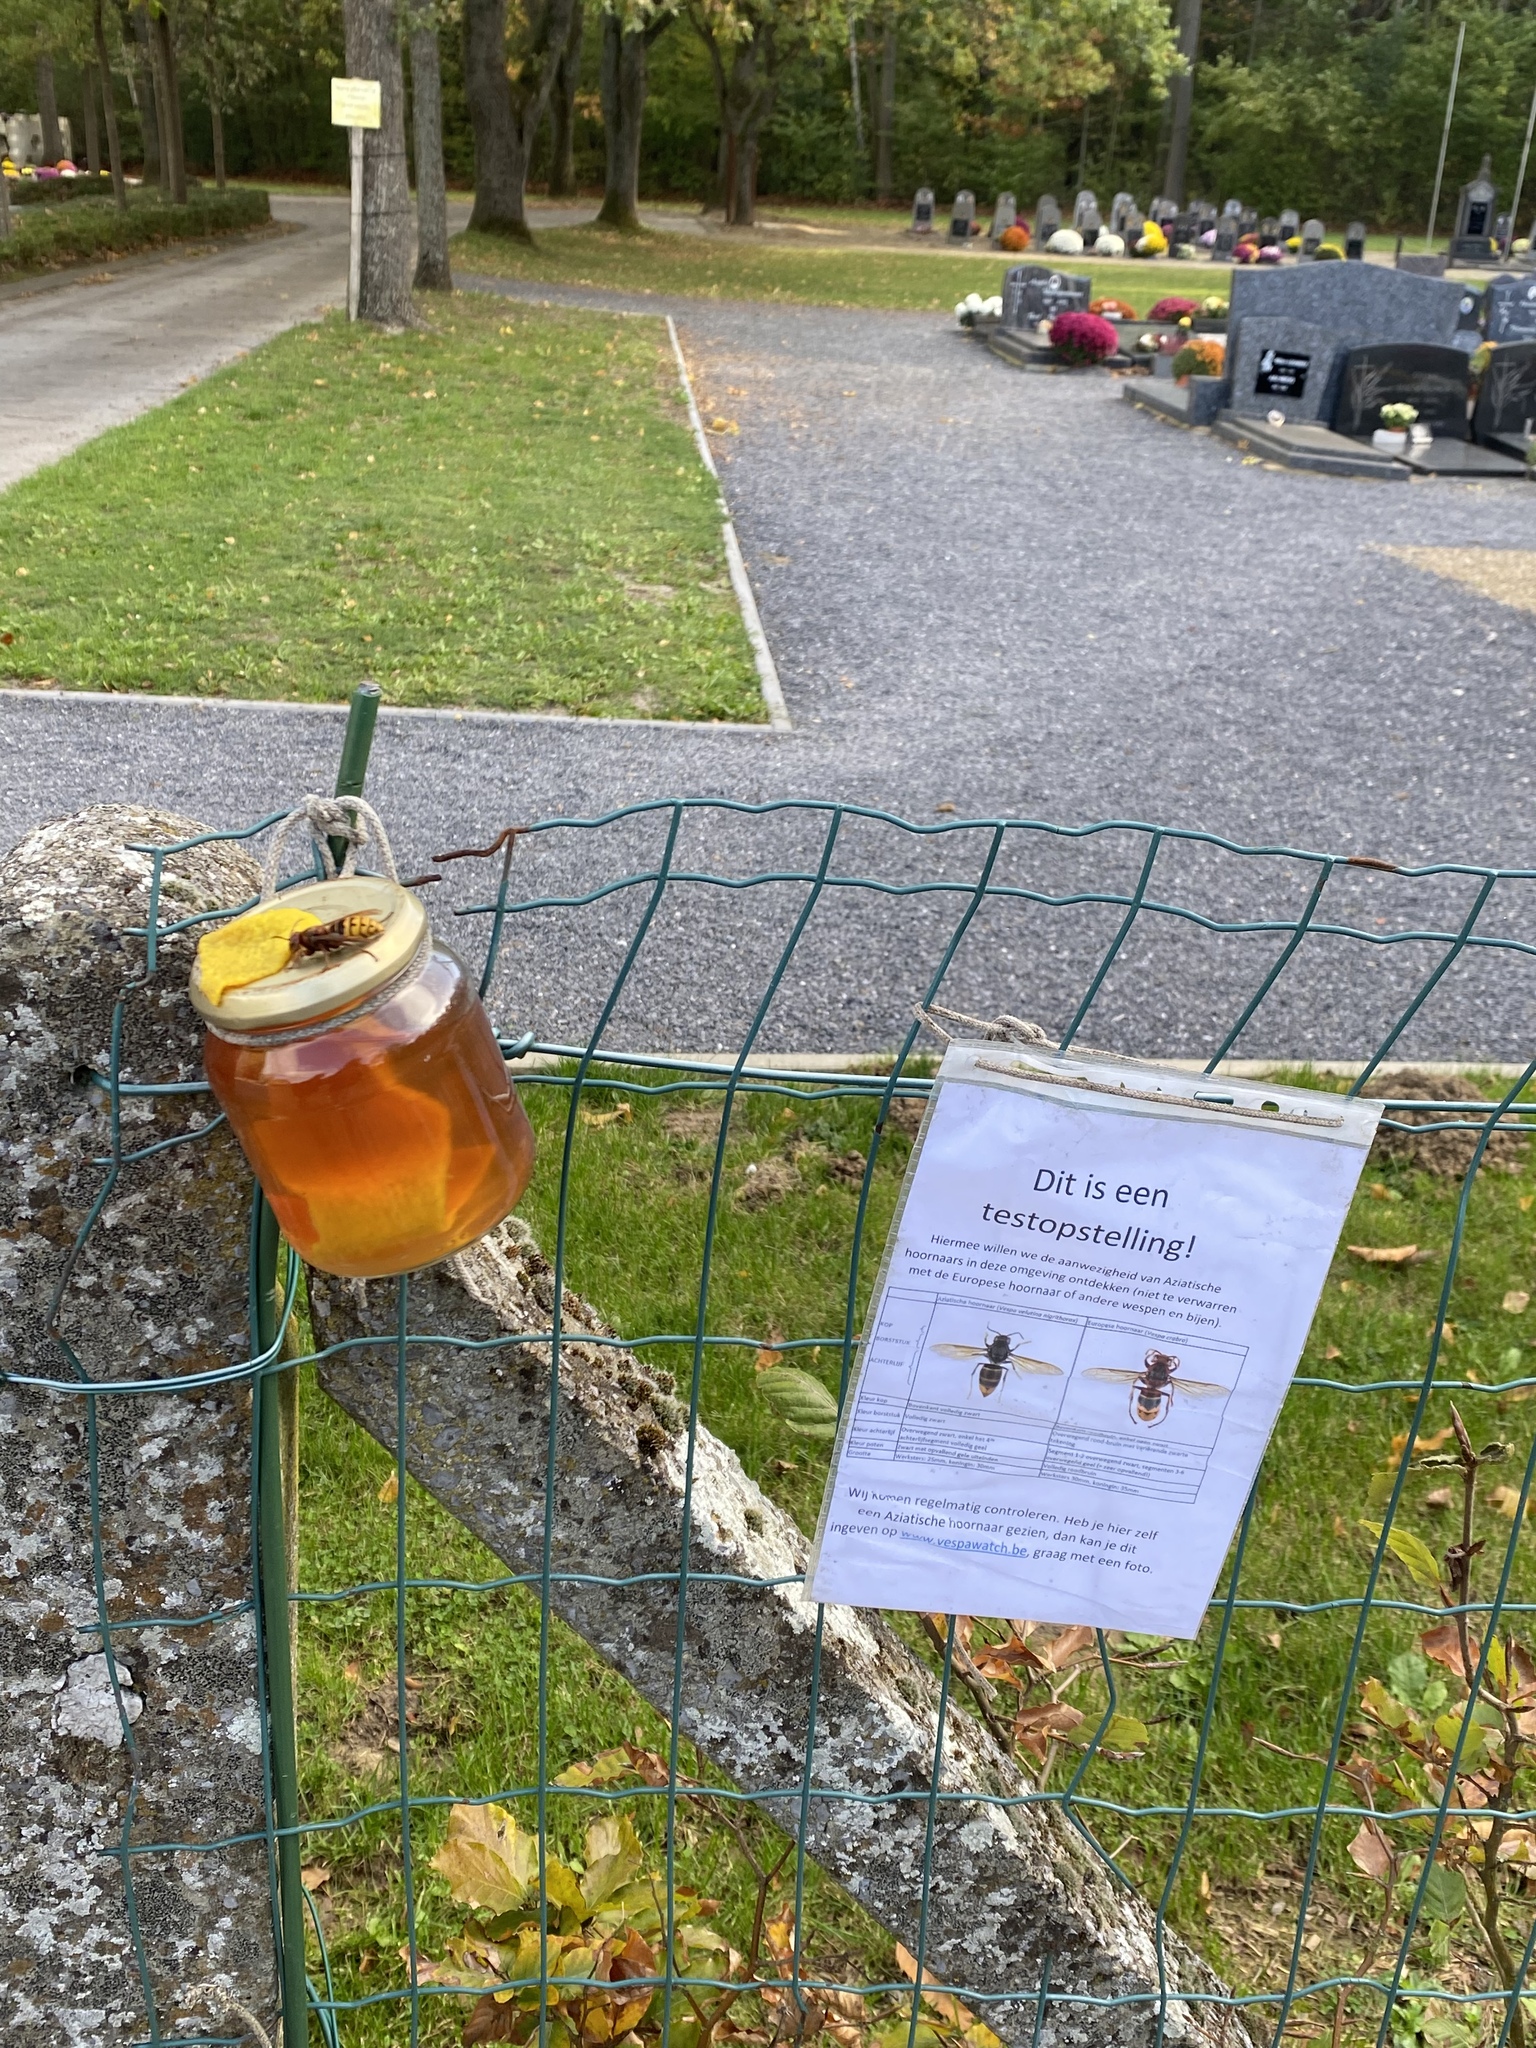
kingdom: Animalia
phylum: Arthropoda
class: Insecta
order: Hymenoptera
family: Vespidae
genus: Vespa
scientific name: Vespa crabro
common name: Hornet
